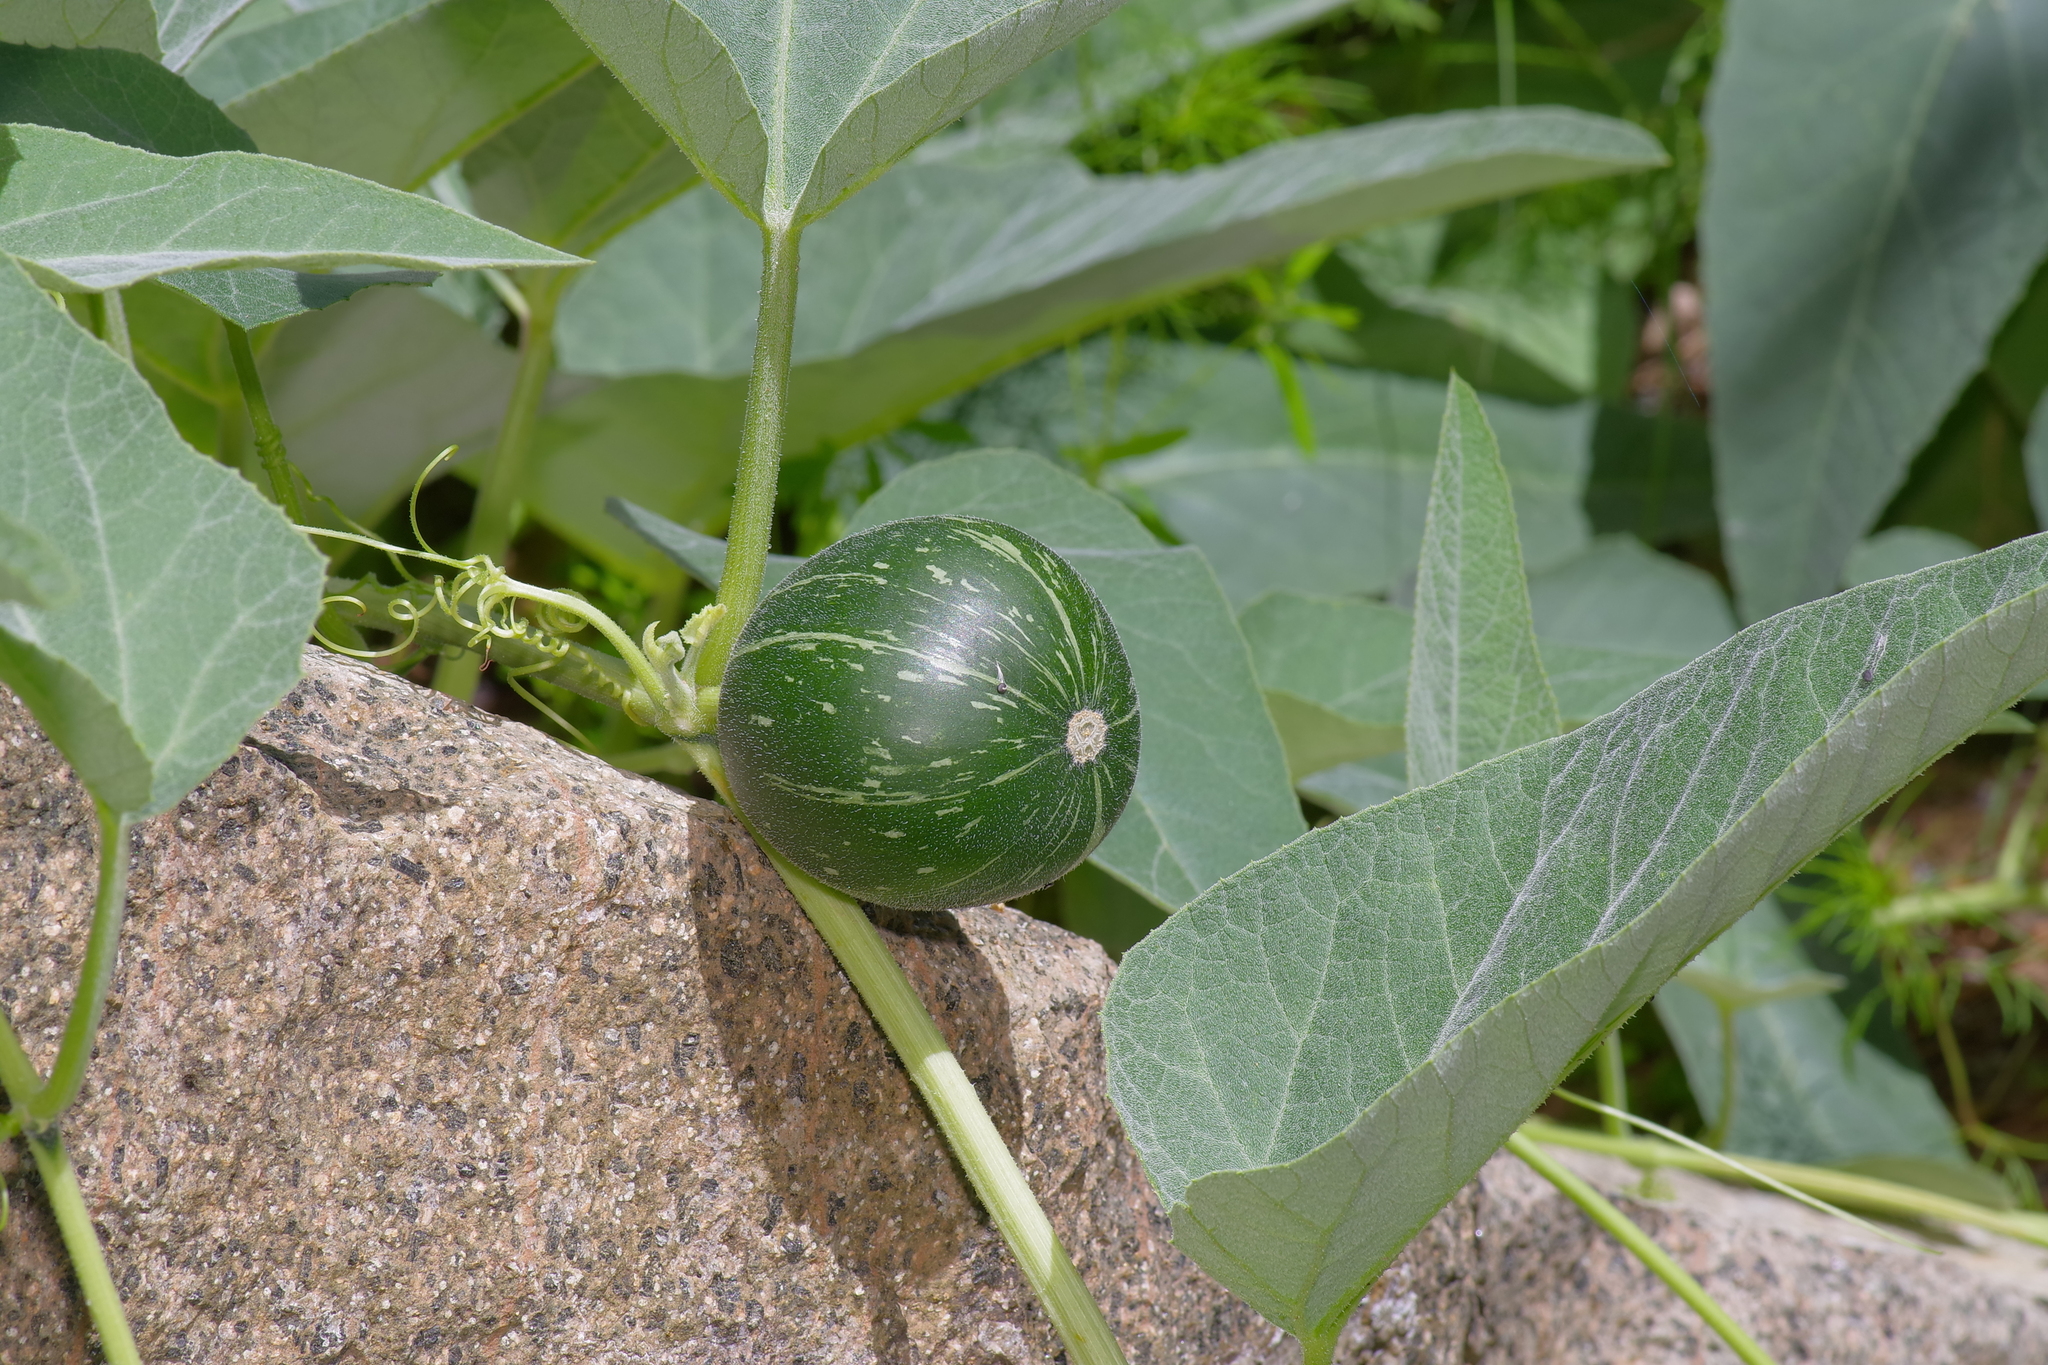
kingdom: Plantae
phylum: Tracheophyta
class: Magnoliopsida
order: Cucurbitales
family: Cucurbitaceae
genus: Cucurbita
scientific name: Cucurbita foetidissima
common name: Buffalo gourd
